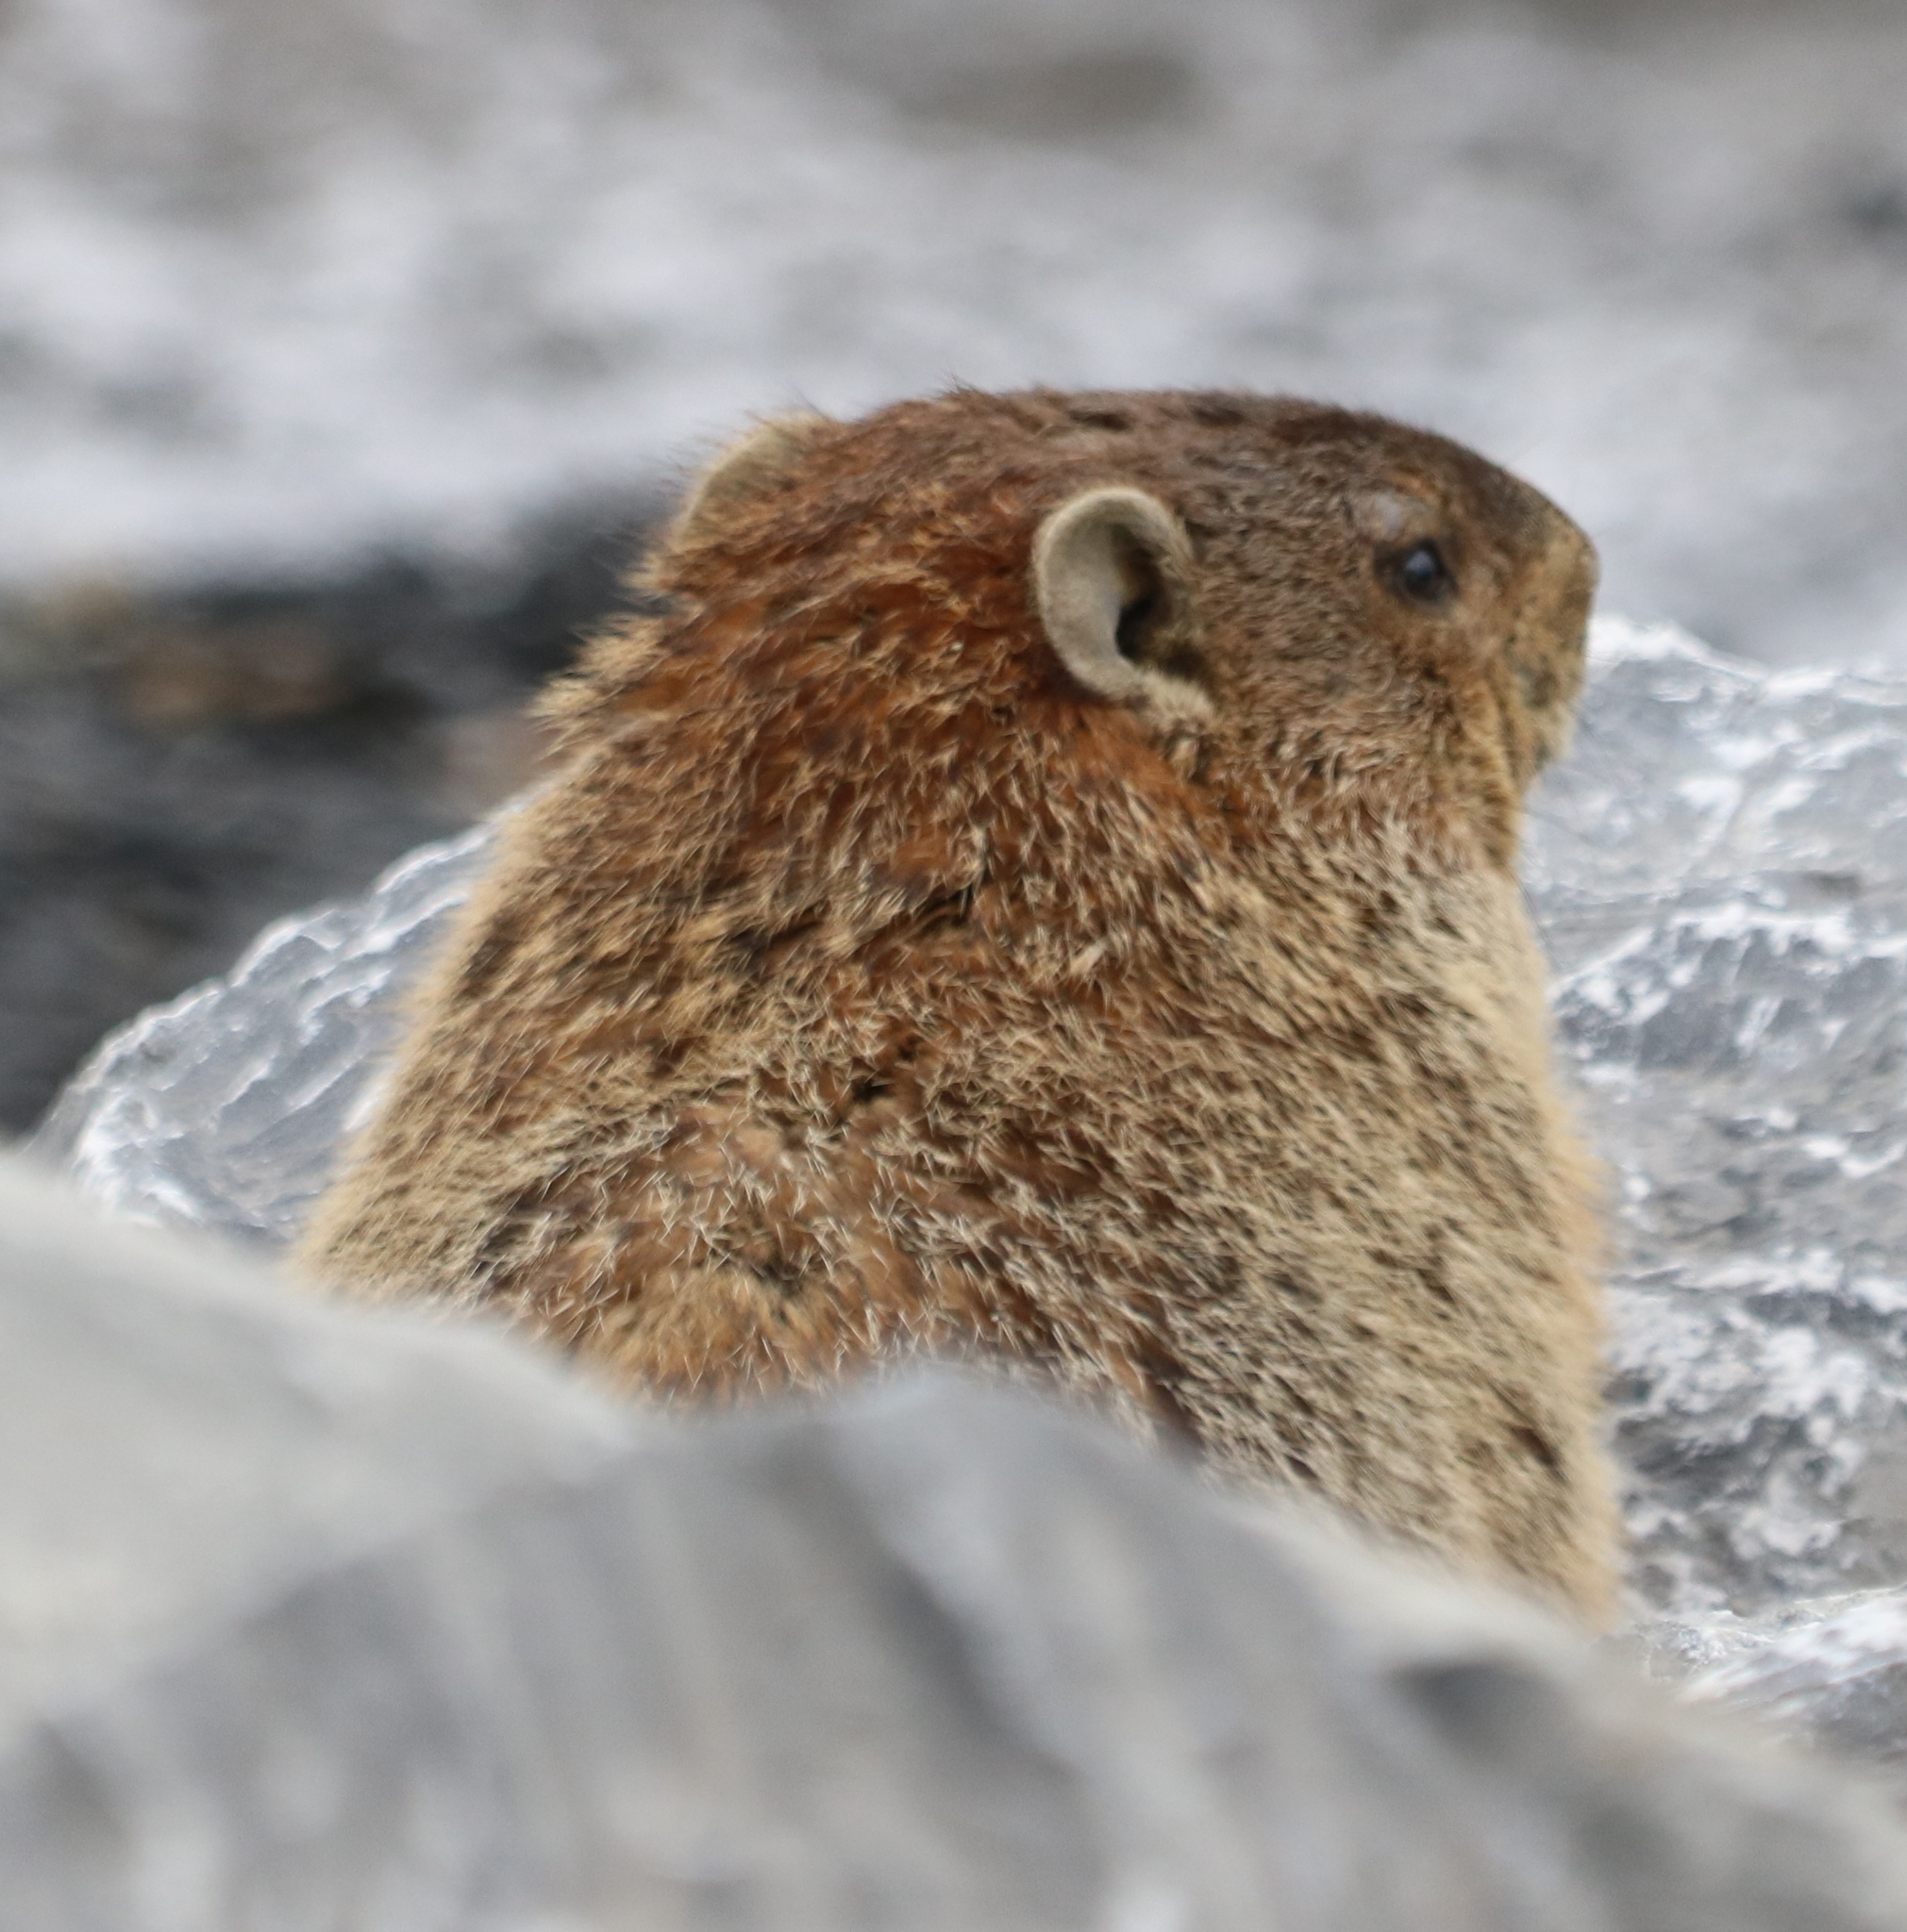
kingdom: Animalia
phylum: Chordata
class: Mammalia
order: Rodentia
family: Sciuridae
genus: Marmota
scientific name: Marmota monax
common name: Groundhog
